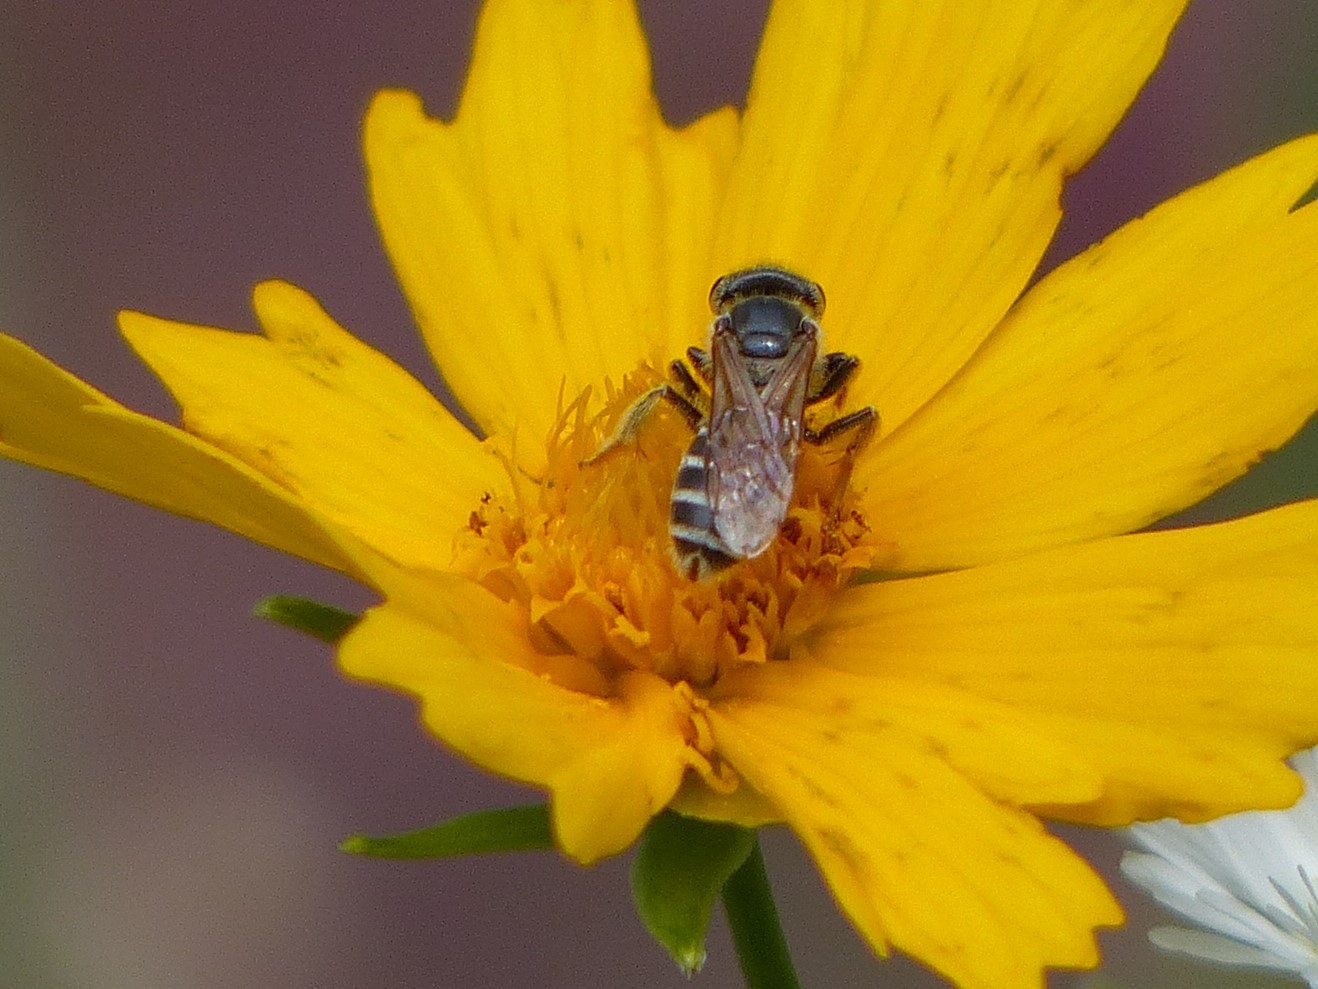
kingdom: Animalia
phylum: Arthropoda
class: Insecta
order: Hymenoptera
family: Halictidae
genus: Halictus
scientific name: Halictus ligatus
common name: Ligated furrow bee
